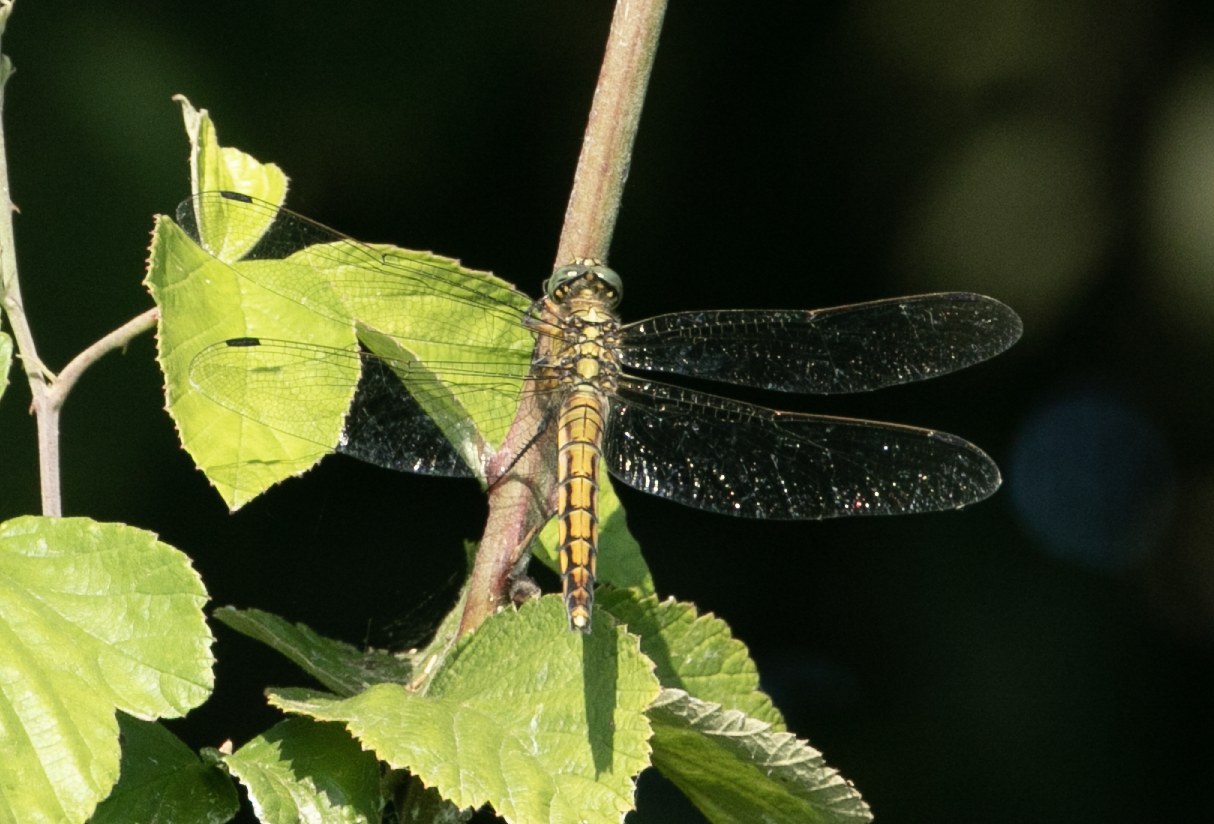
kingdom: Animalia
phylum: Arthropoda
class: Insecta
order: Odonata
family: Libellulidae
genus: Orthetrum
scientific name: Orthetrum cancellatum
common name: Black-tailed skimmer
